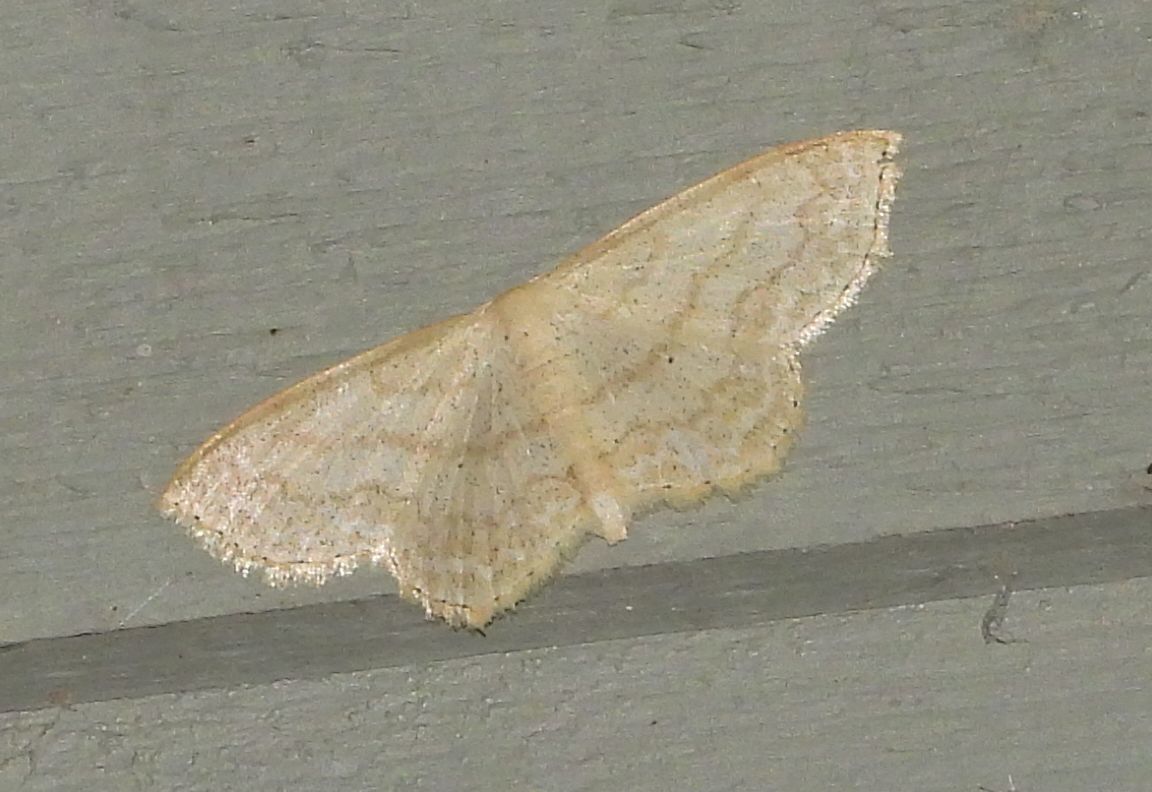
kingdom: Animalia
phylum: Arthropoda
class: Insecta
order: Lepidoptera
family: Geometridae
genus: Scopula
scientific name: Scopula limboundata
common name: Large lace border
